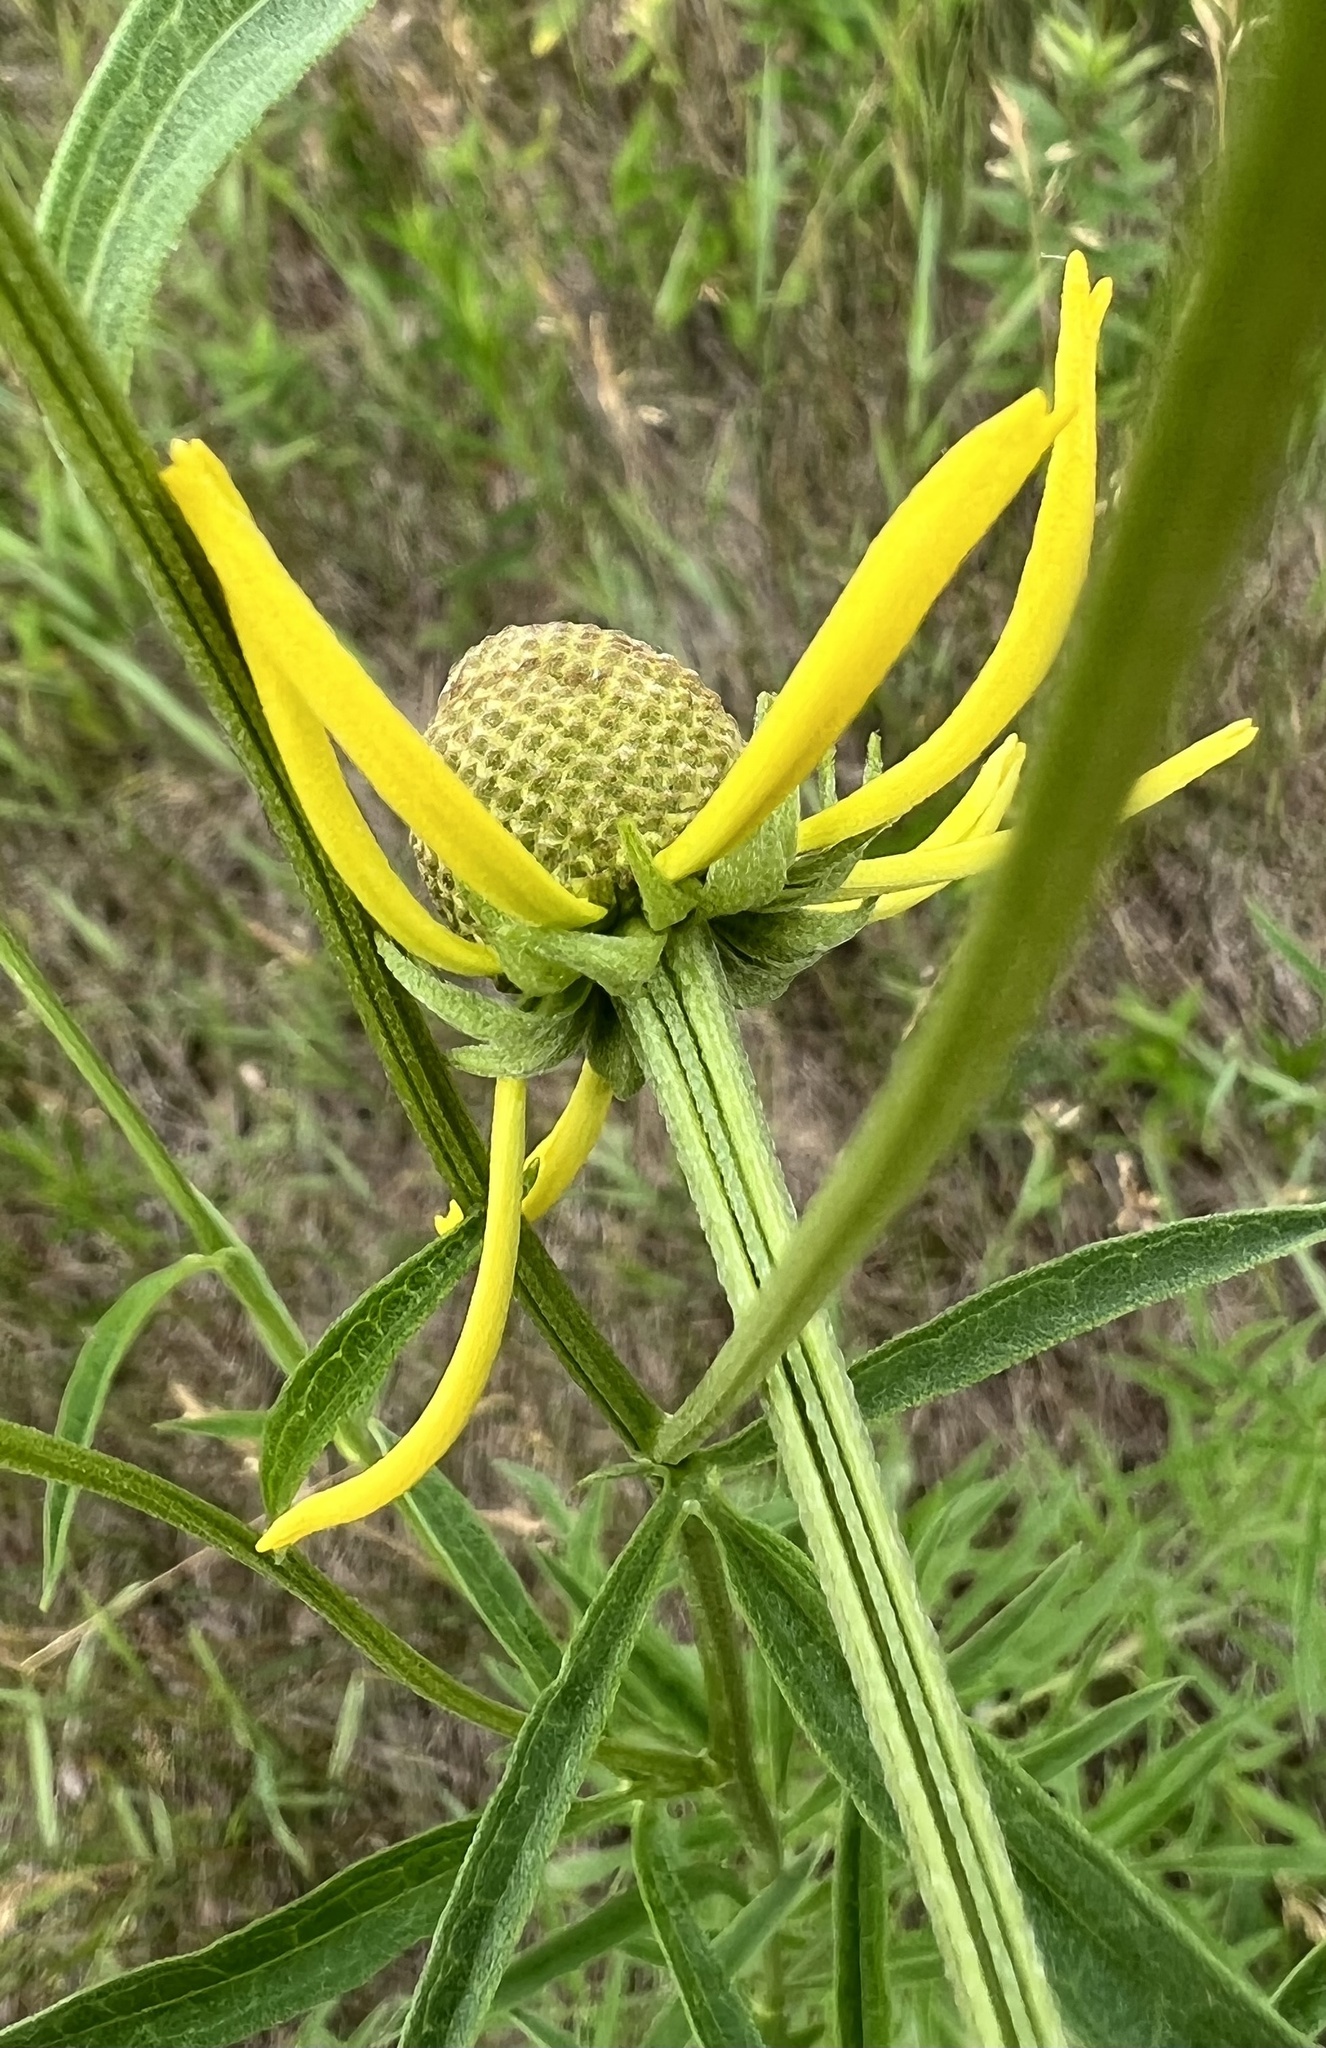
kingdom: Plantae
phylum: Tracheophyta
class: Magnoliopsida
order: Asterales
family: Asteraceae
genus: Ratibida
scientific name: Ratibida pinnata
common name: Drooping prairie-coneflower
